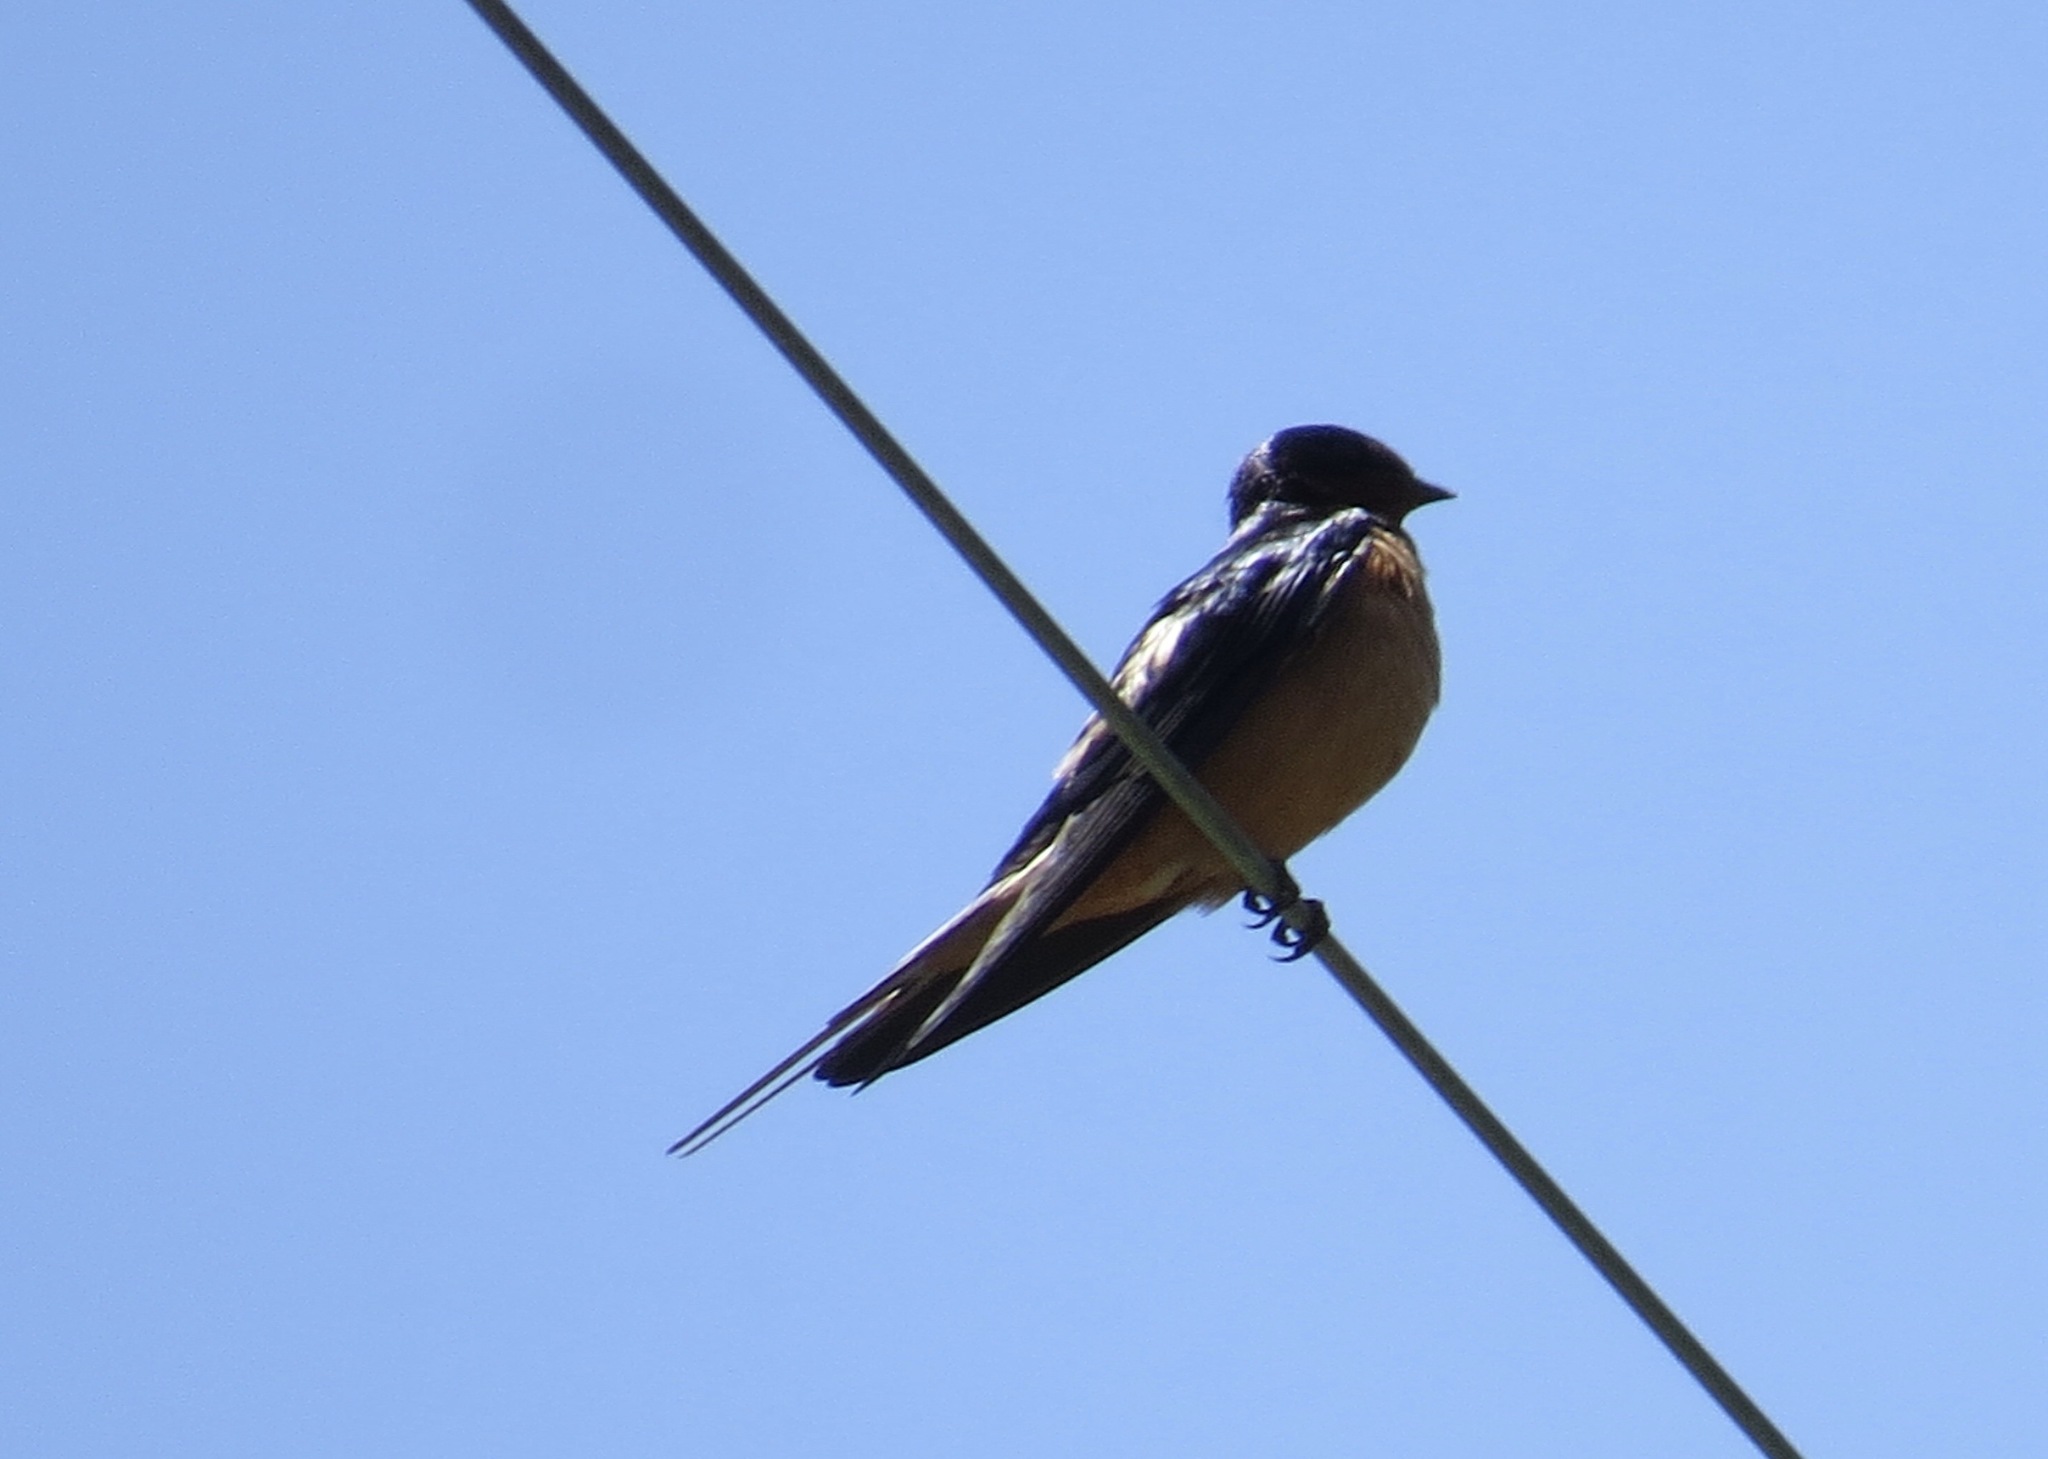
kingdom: Animalia
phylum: Chordata
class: Aves
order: Passeriformes
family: Hirundinidae
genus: Hirundo
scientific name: Hirundo rustica
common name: Barn swallow
